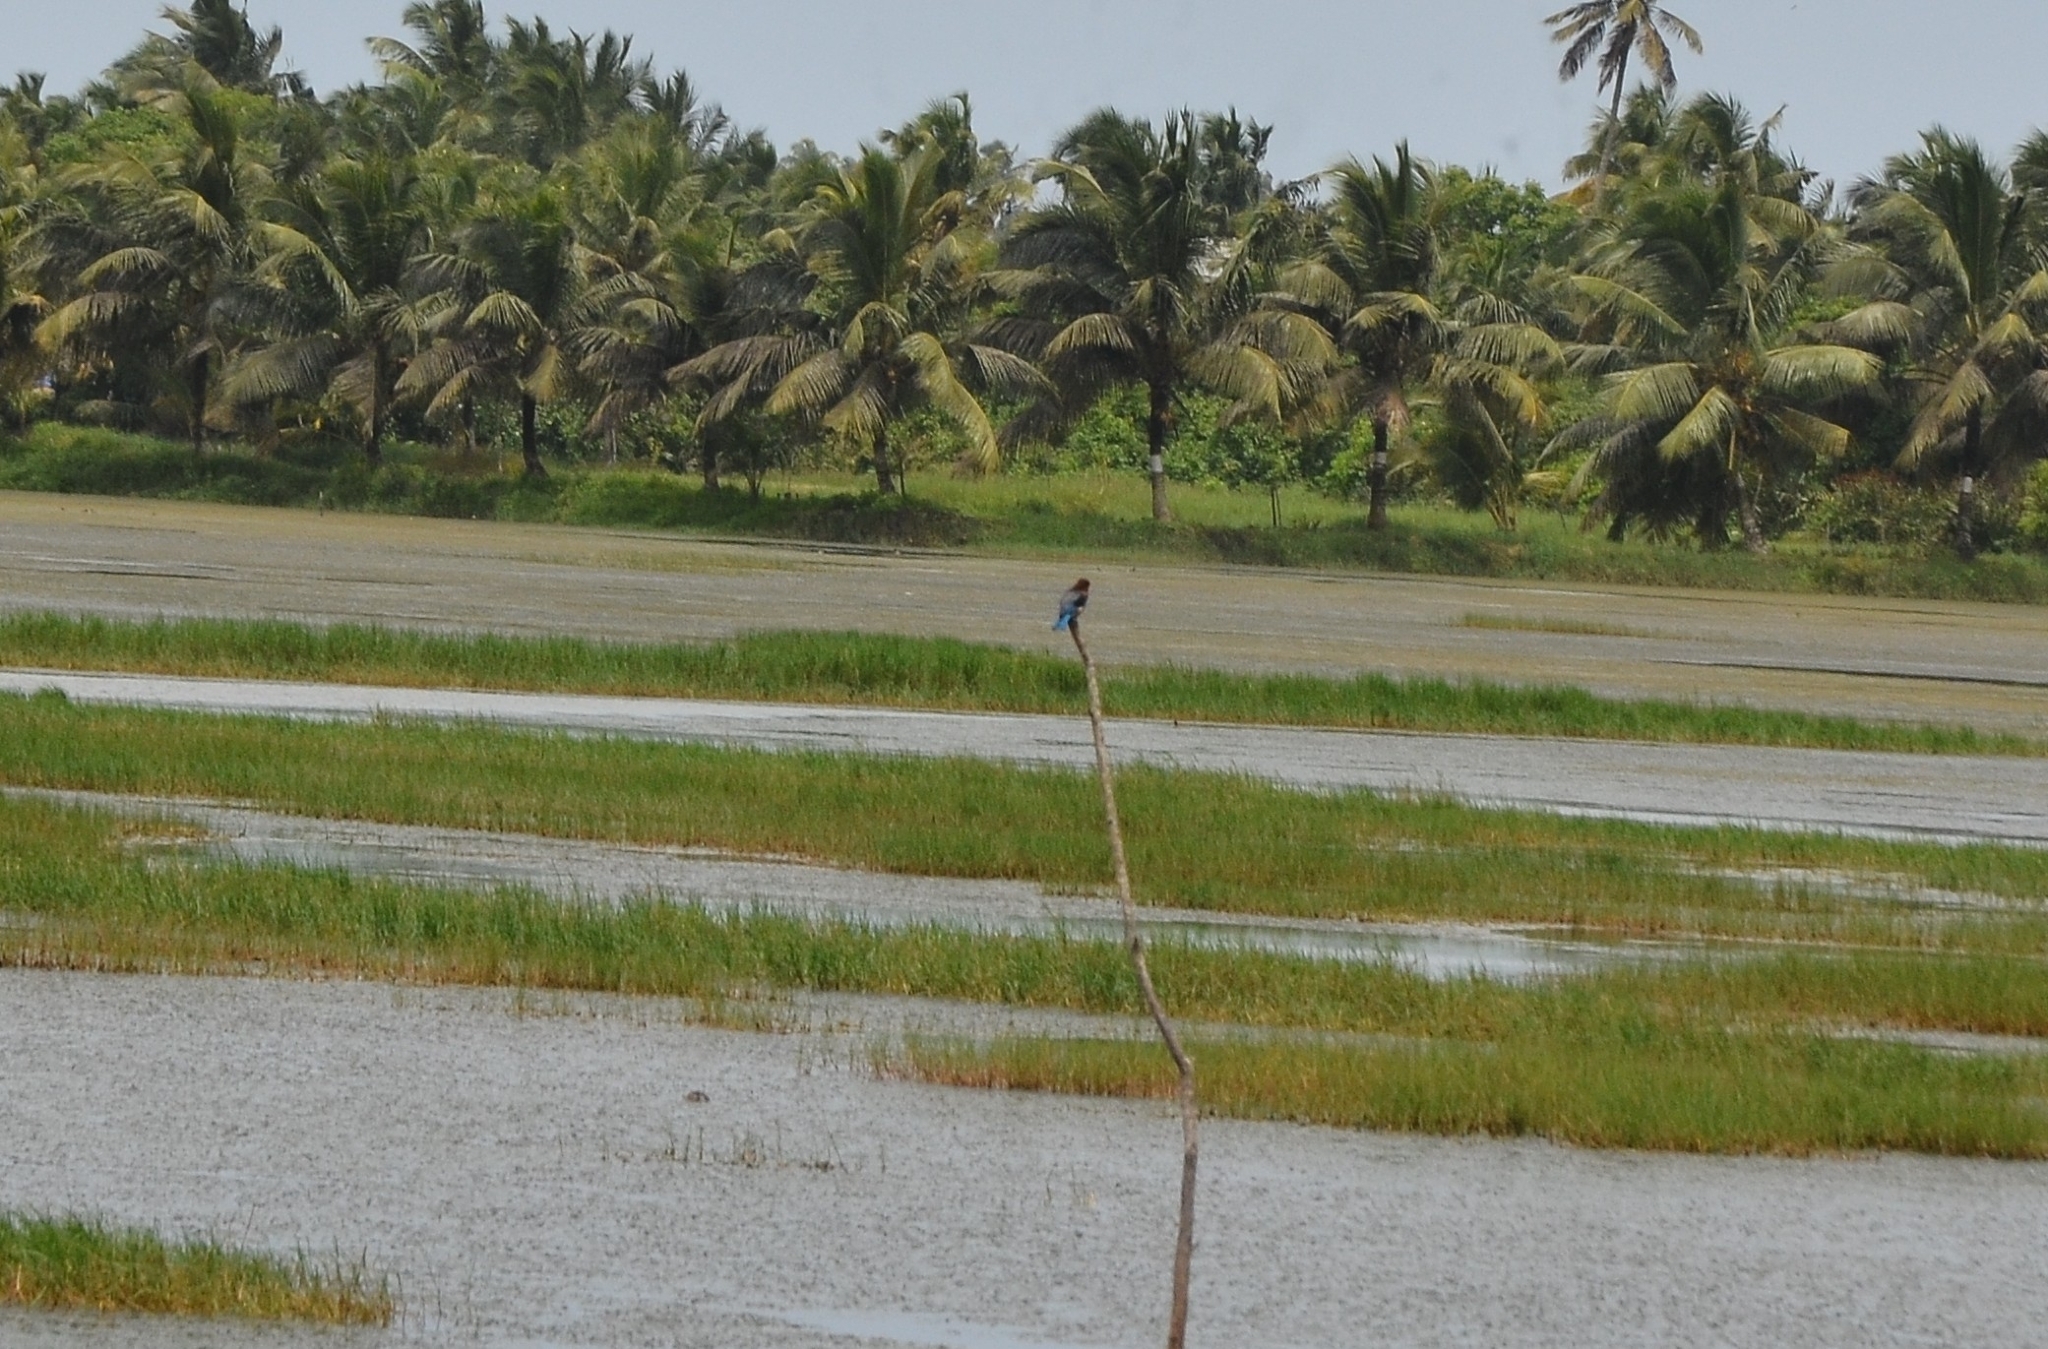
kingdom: Animalia
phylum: Chordata
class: Aves
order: Coraciiformes
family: Alcedinidae
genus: Halcyon
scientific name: Halcyon smyrnensis
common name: White-throated kingfisher
